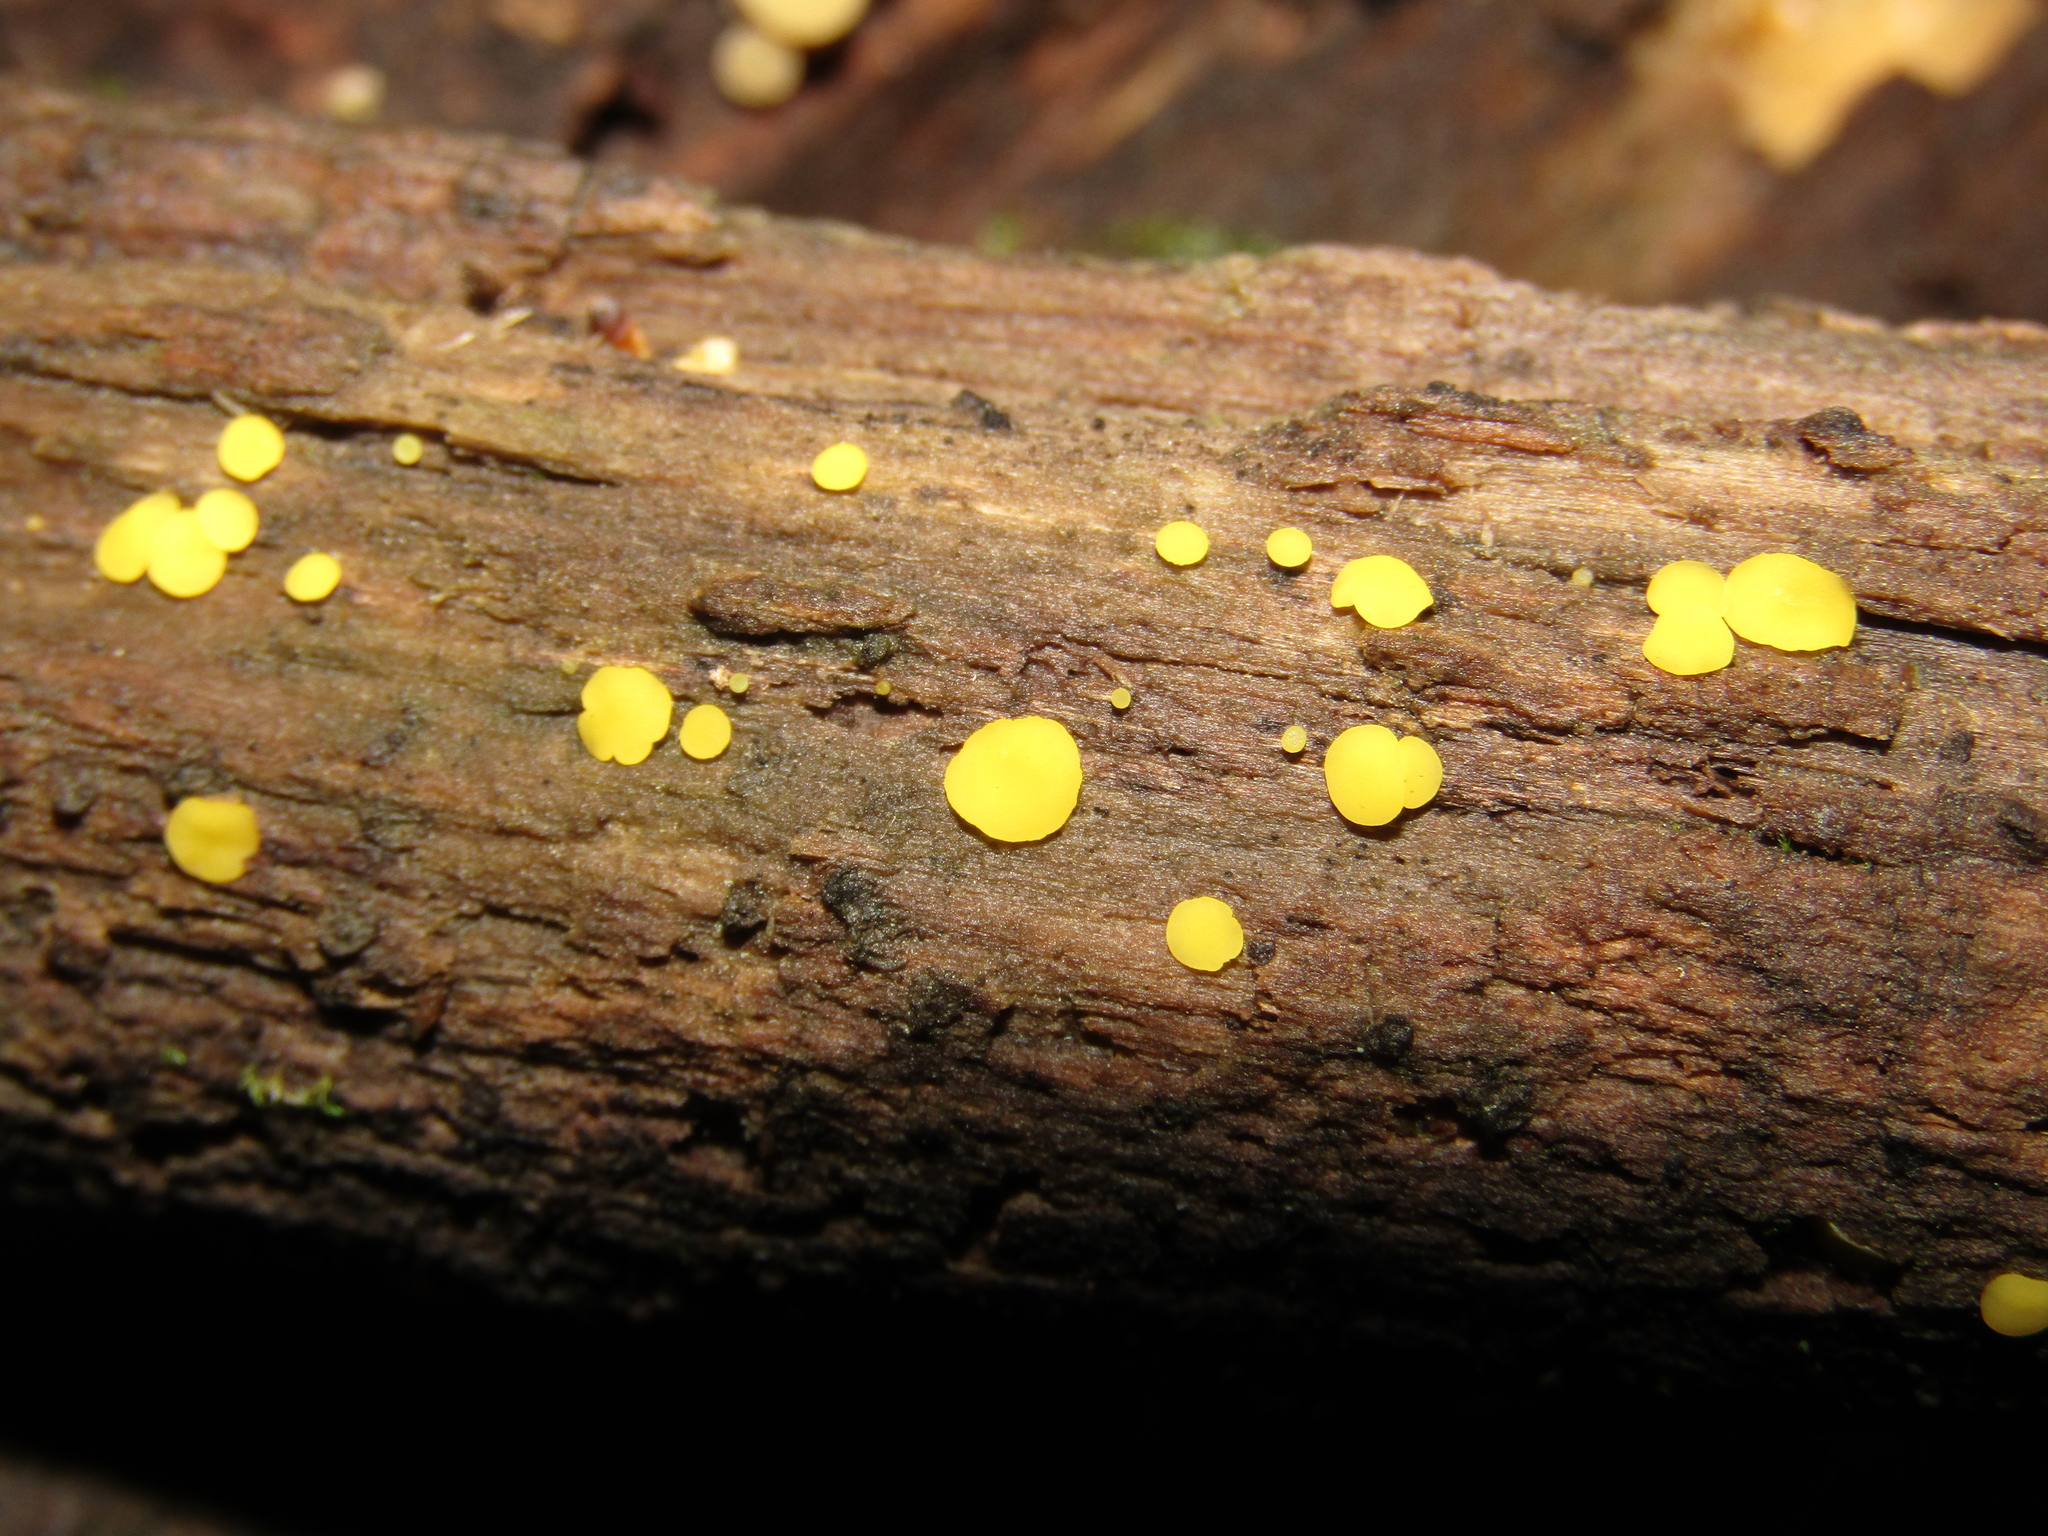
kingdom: Fungi
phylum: Ascomycota
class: Leotiomycetes
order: Helotiales
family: Pezizellaceae
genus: Calycina
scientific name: Calycina citrina
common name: Yellow fairy cups
